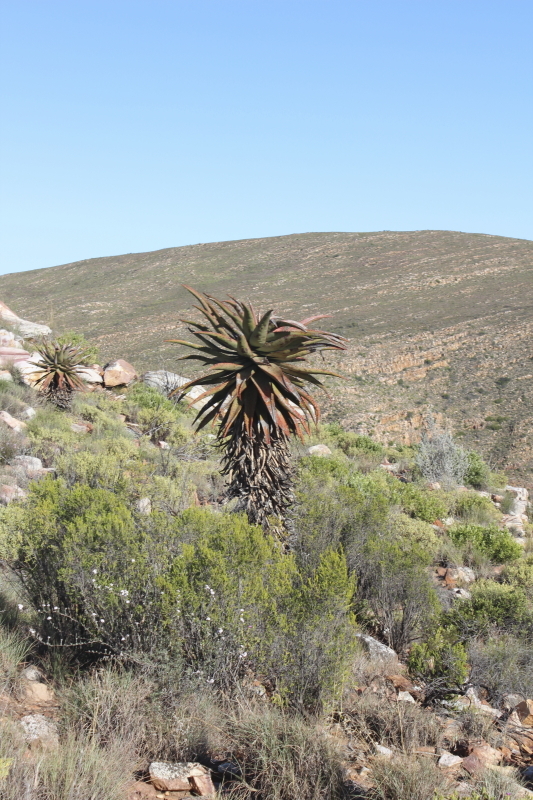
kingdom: Plantae
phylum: Tracheophyta
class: Liliopsida
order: Asparagales
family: Asphodelaceae
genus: Aloe
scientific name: Aloe ferox
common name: Bitter aloe
